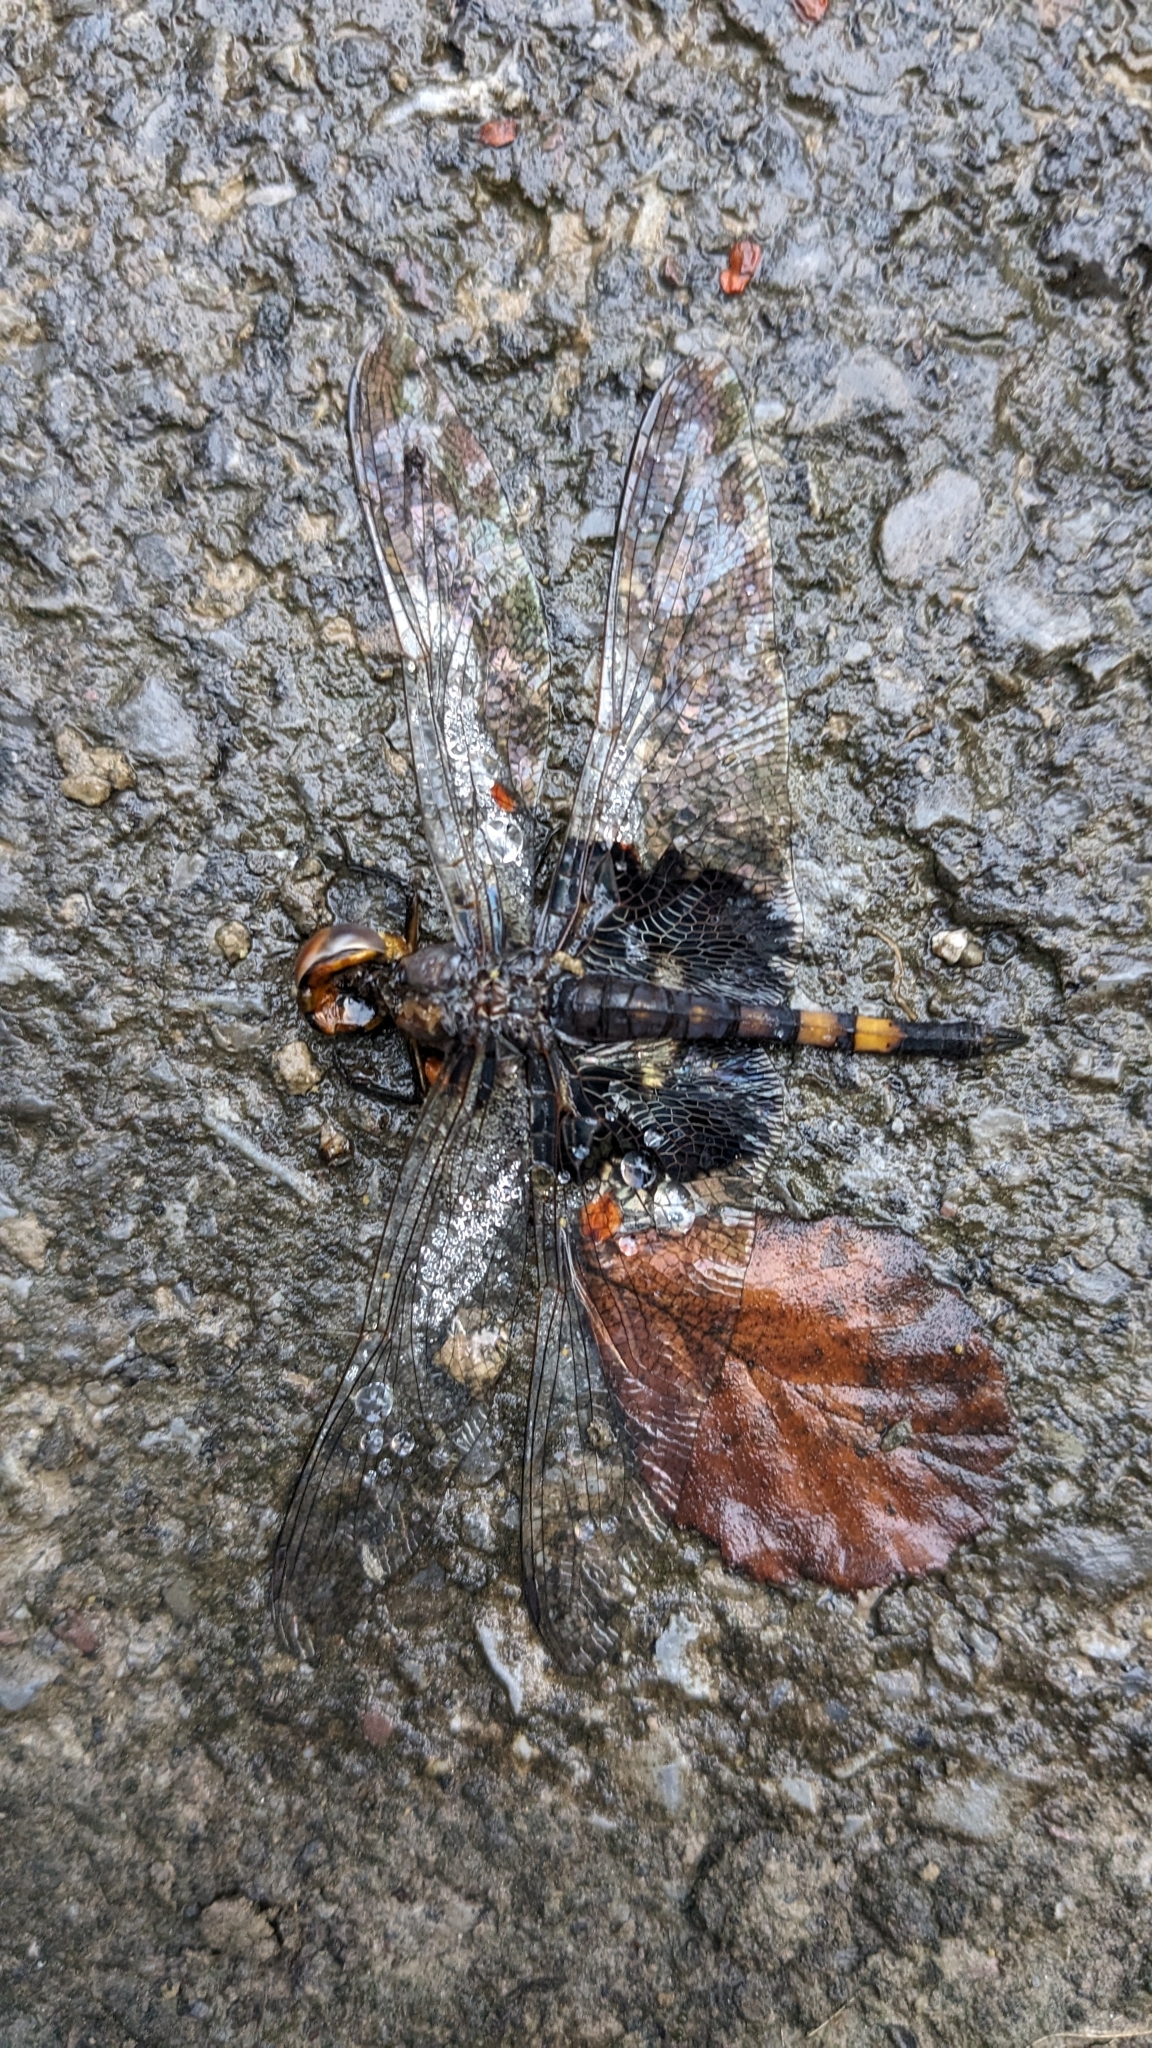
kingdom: Animalia
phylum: Arthropoda
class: Insecta
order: Odonata
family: Libellulidae
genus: Tramea
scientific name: Tramea lacerata
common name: Black saddlebags
